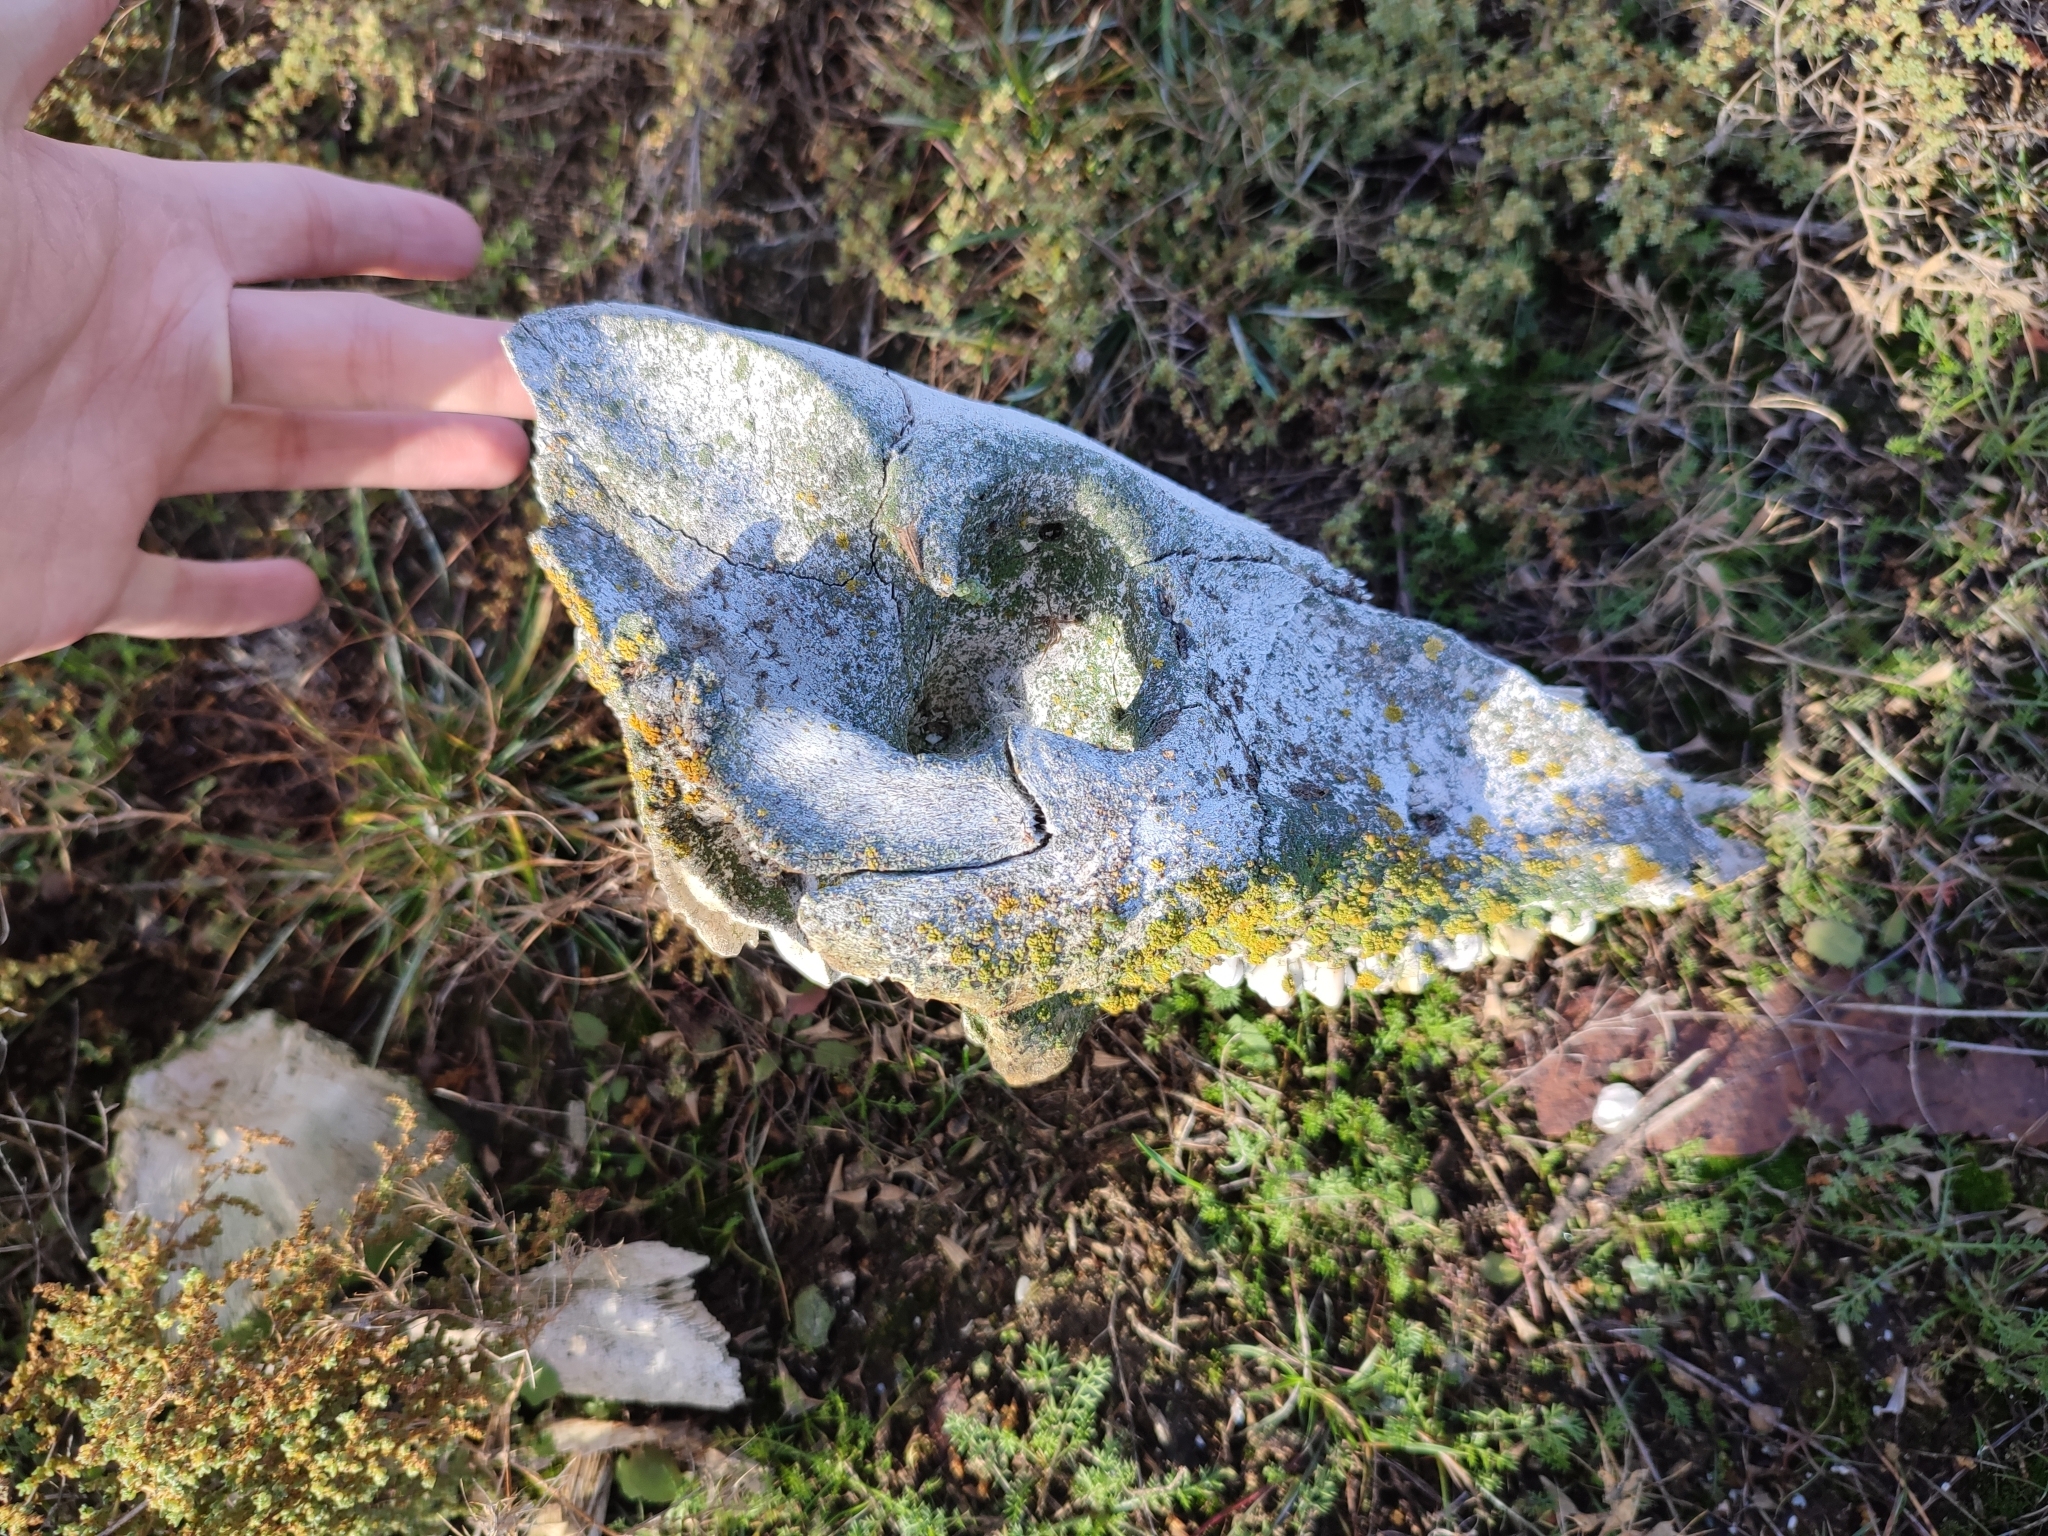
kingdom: Animalia
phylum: Chordata
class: Mammalia
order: Artiodactyla
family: Suidae
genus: Sus
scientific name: Sus scrofa
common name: Wild boar
